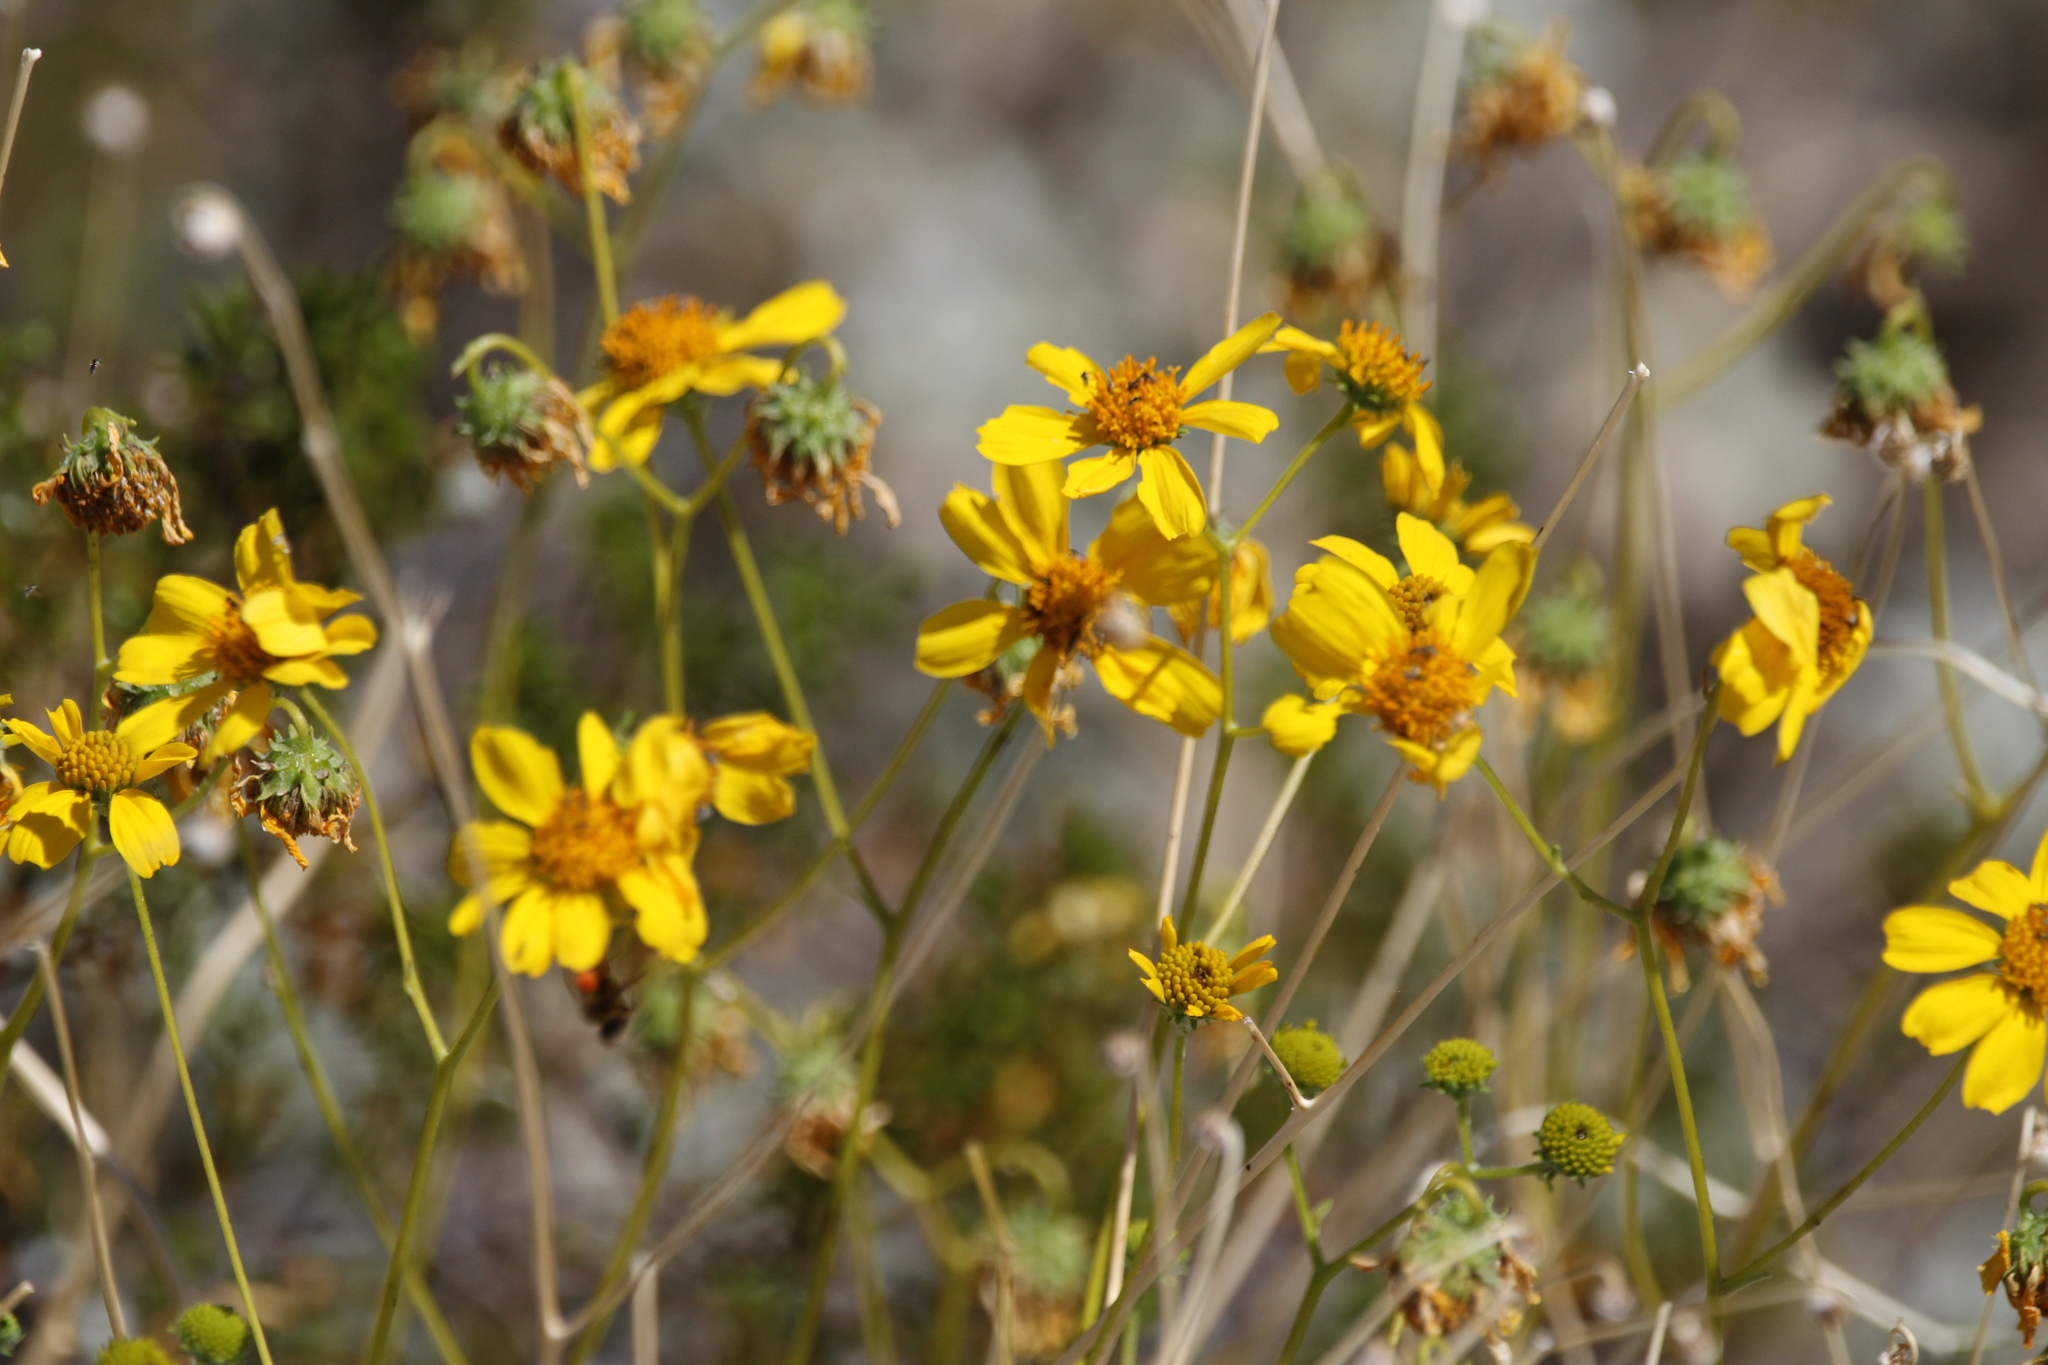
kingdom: Plantae
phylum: Tracheophyta
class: Magnoliopsida
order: Asterales
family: Asteraceae
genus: Encelia
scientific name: Encelia farinosa
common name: Brittlebush
